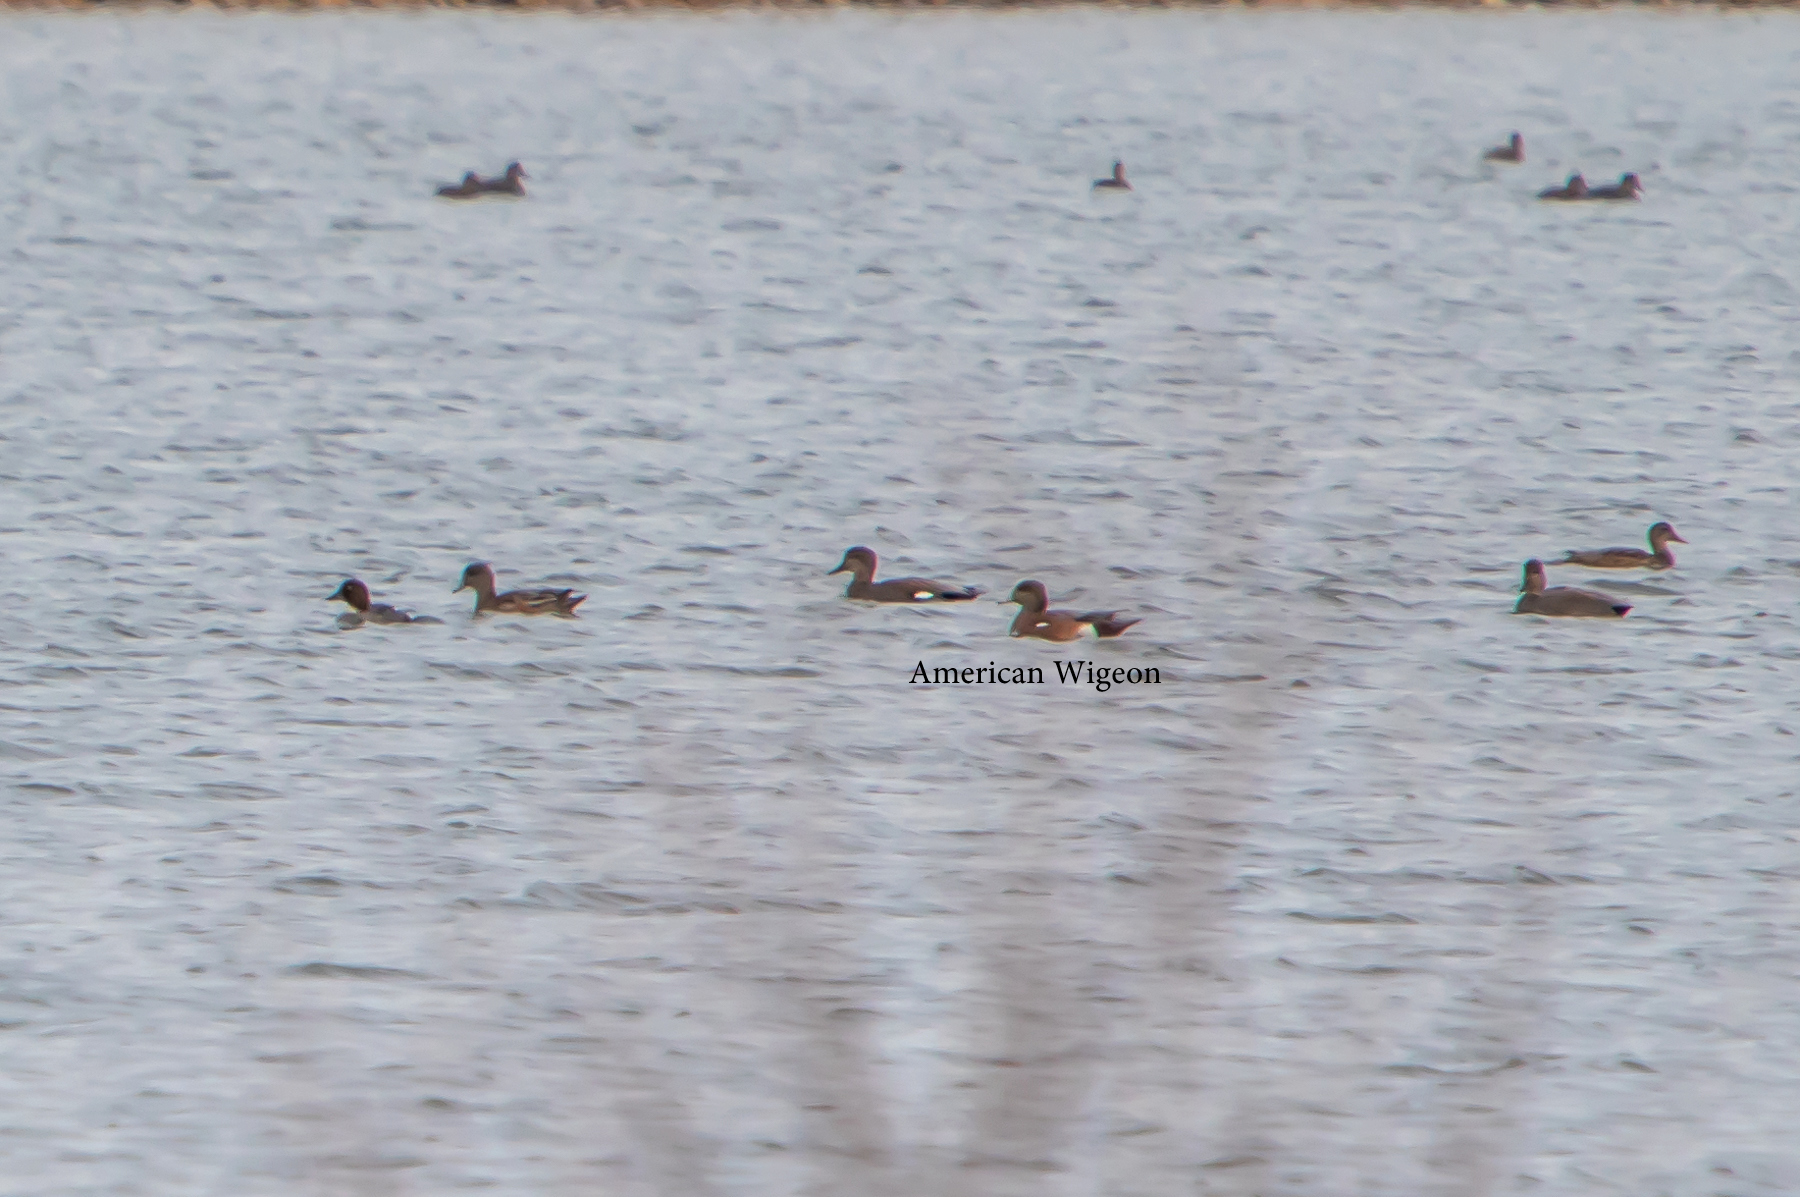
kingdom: Animalia
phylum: Chordata
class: Aves
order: Anseriformes
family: Anatidae
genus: Mareca
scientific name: Mareca americana
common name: American wigeon
